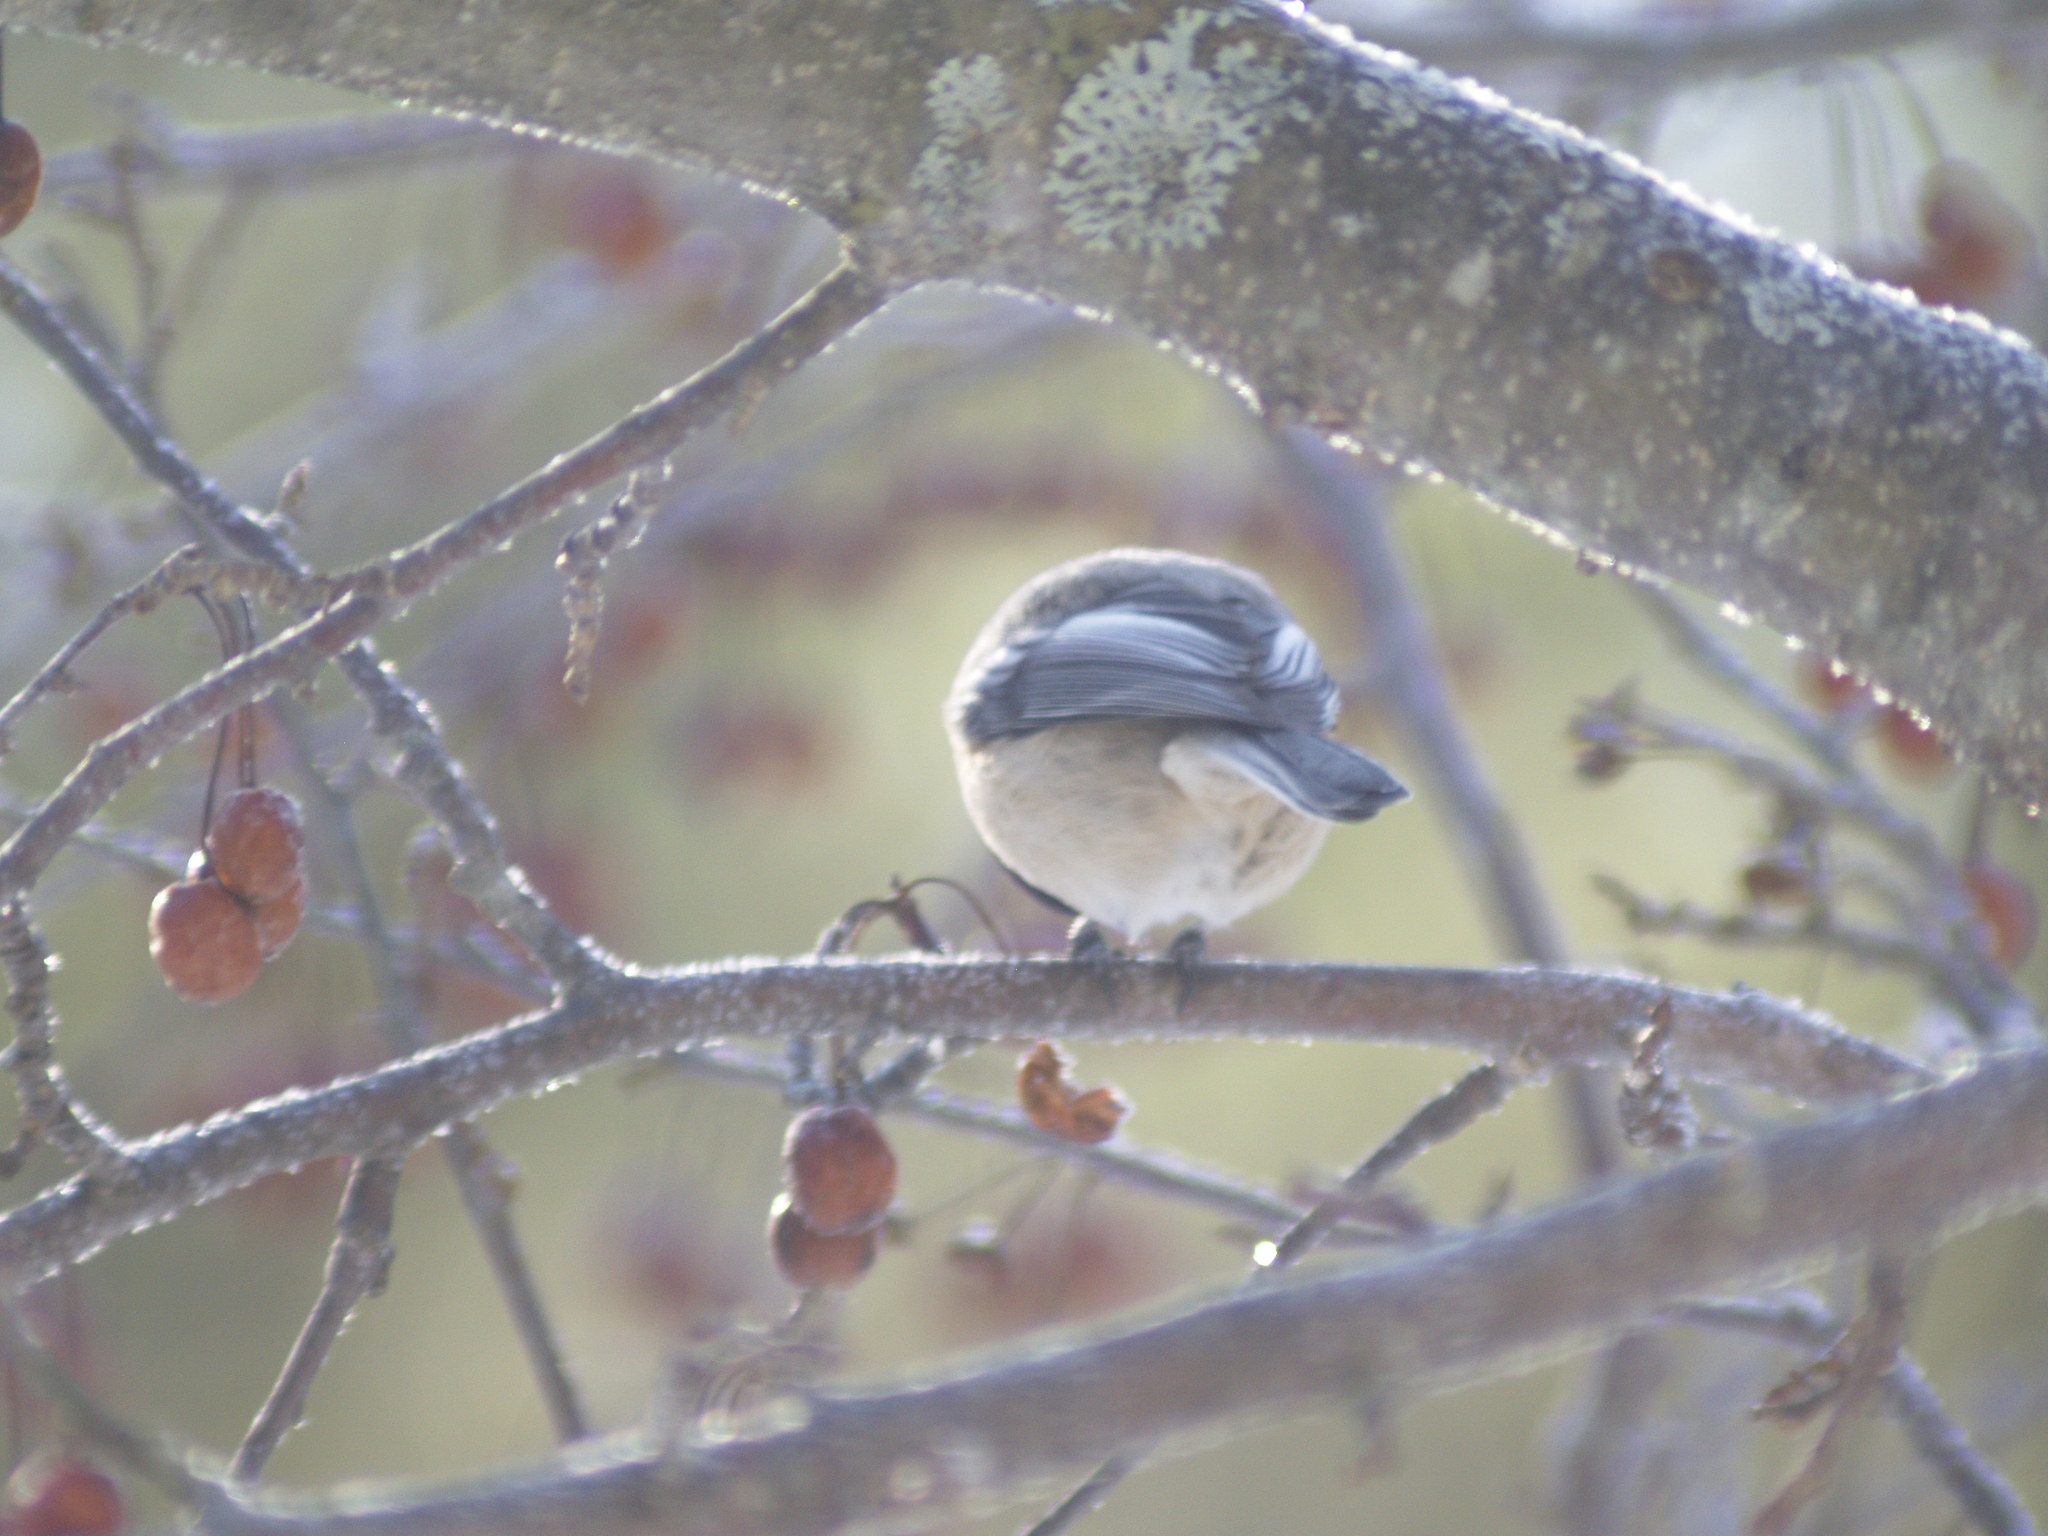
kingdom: Animalia
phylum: Chordata
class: Aves
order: Passeriformes
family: Paridae
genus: Poecile
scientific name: Poecile atricapillus
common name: Black-capped chickadee
